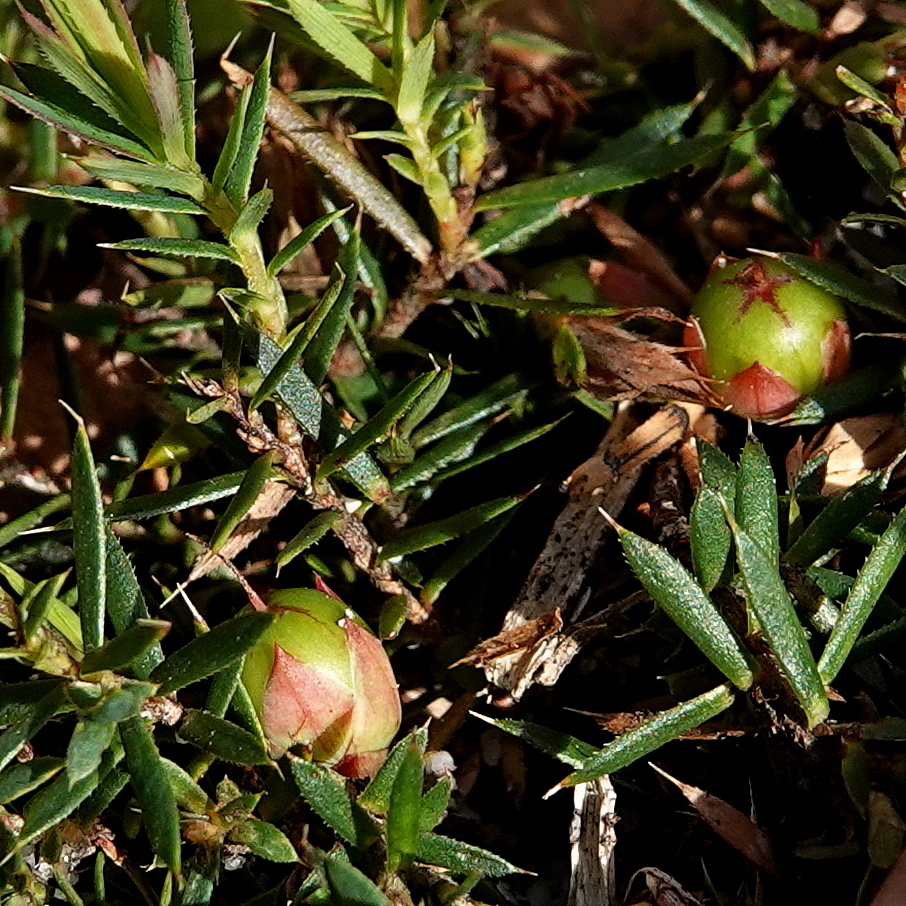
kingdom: Plantae
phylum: Tracheophyta
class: Magnoliopsida
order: Ericales
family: Ericaceae
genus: Styphelia
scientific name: Styphelia humifusa
